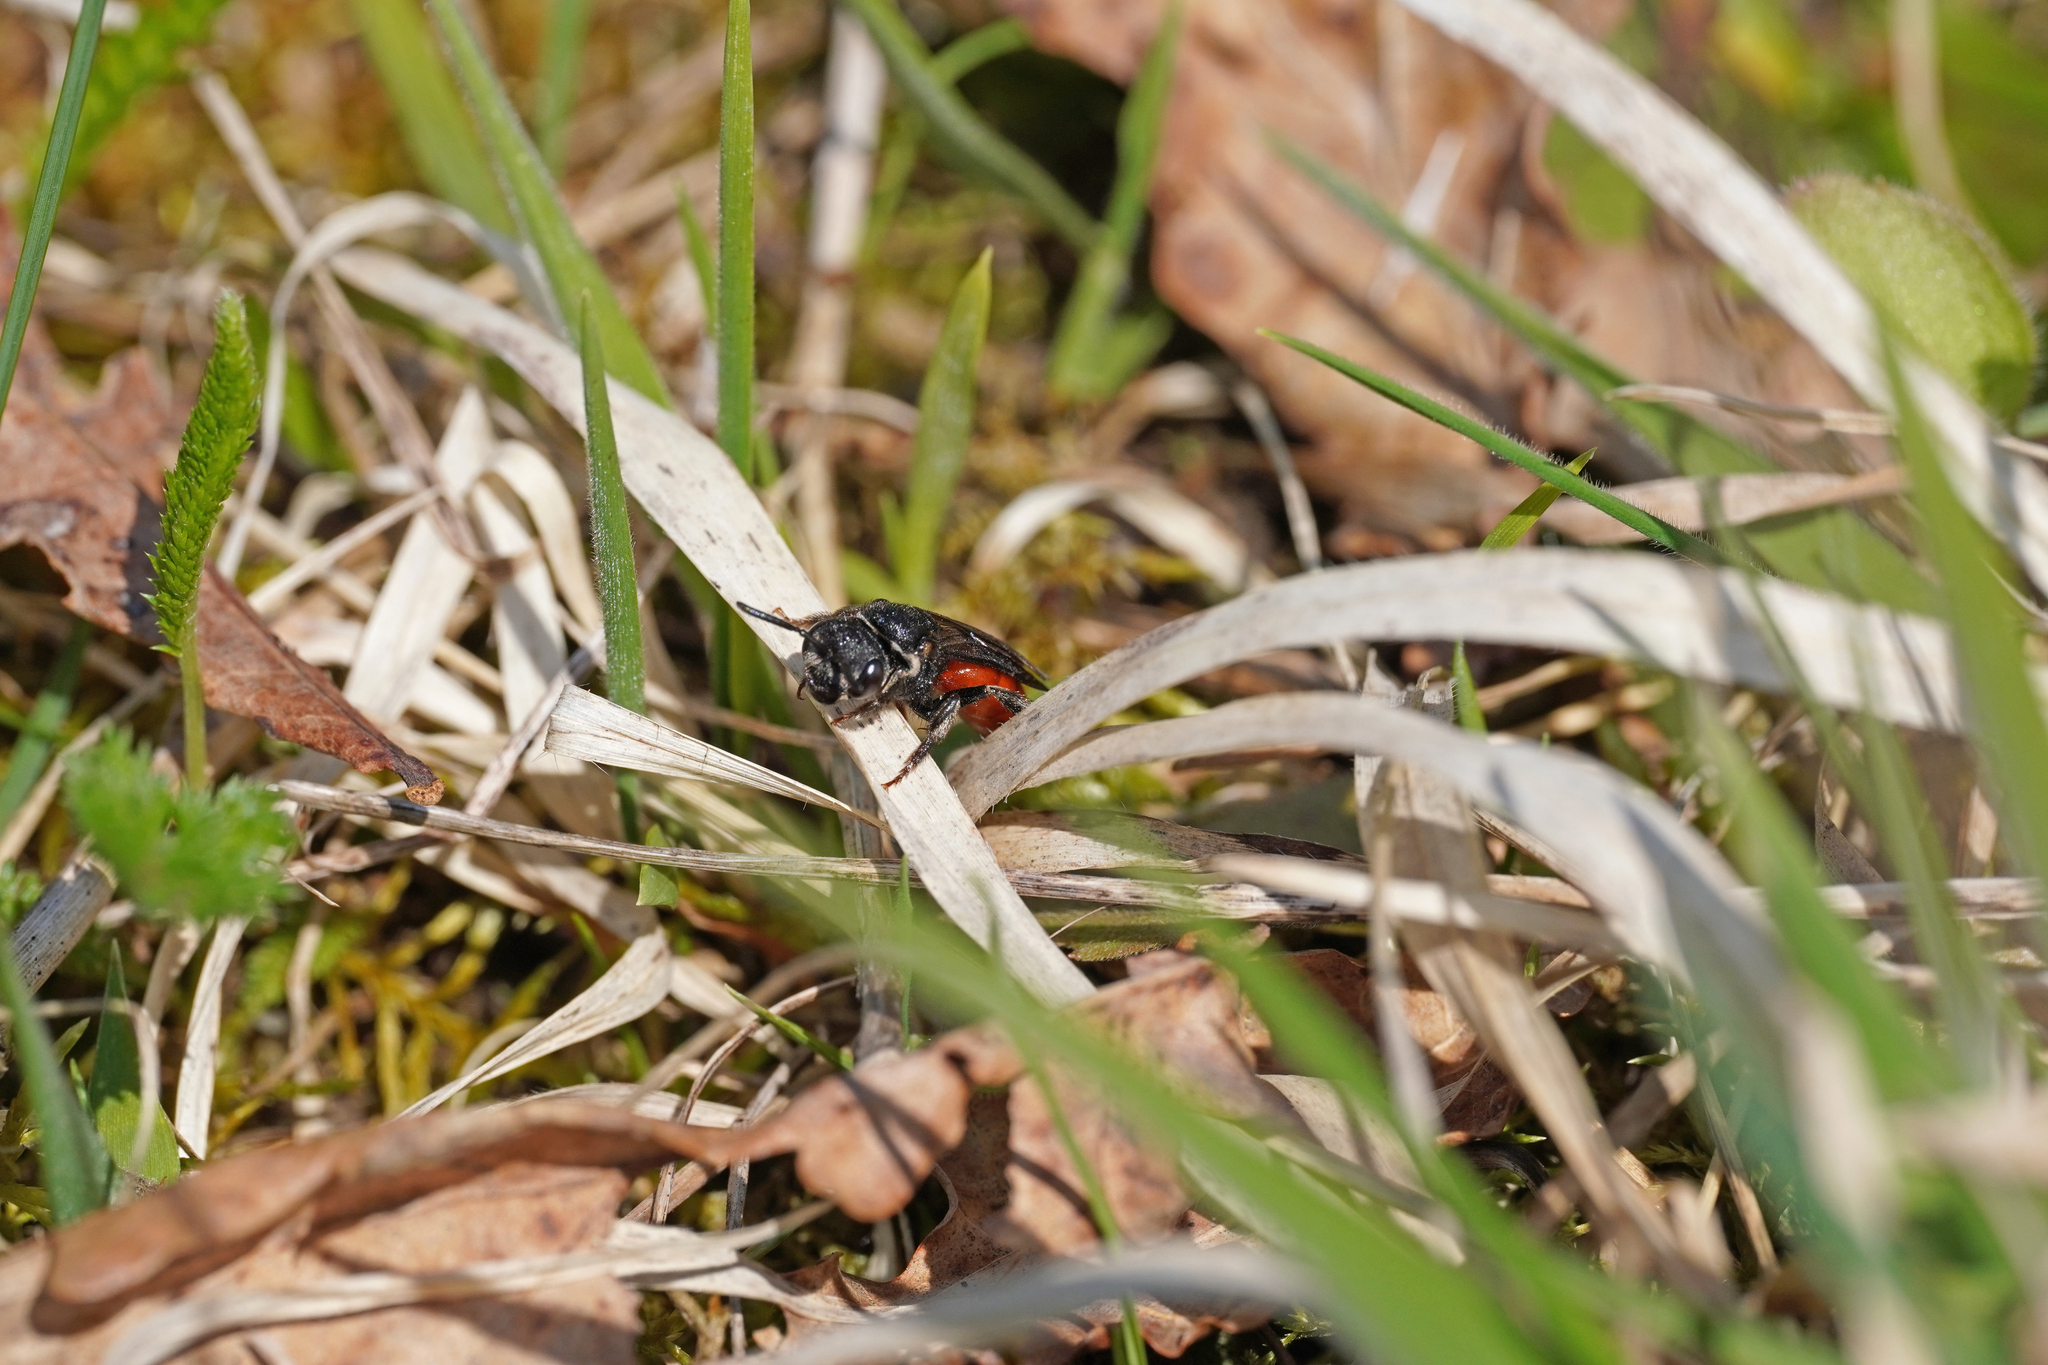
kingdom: Animalia
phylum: Arthropoda
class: Insecta
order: Hymenoptera
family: Halictidae
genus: Sphecodes
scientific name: Sphecodes albilabris
